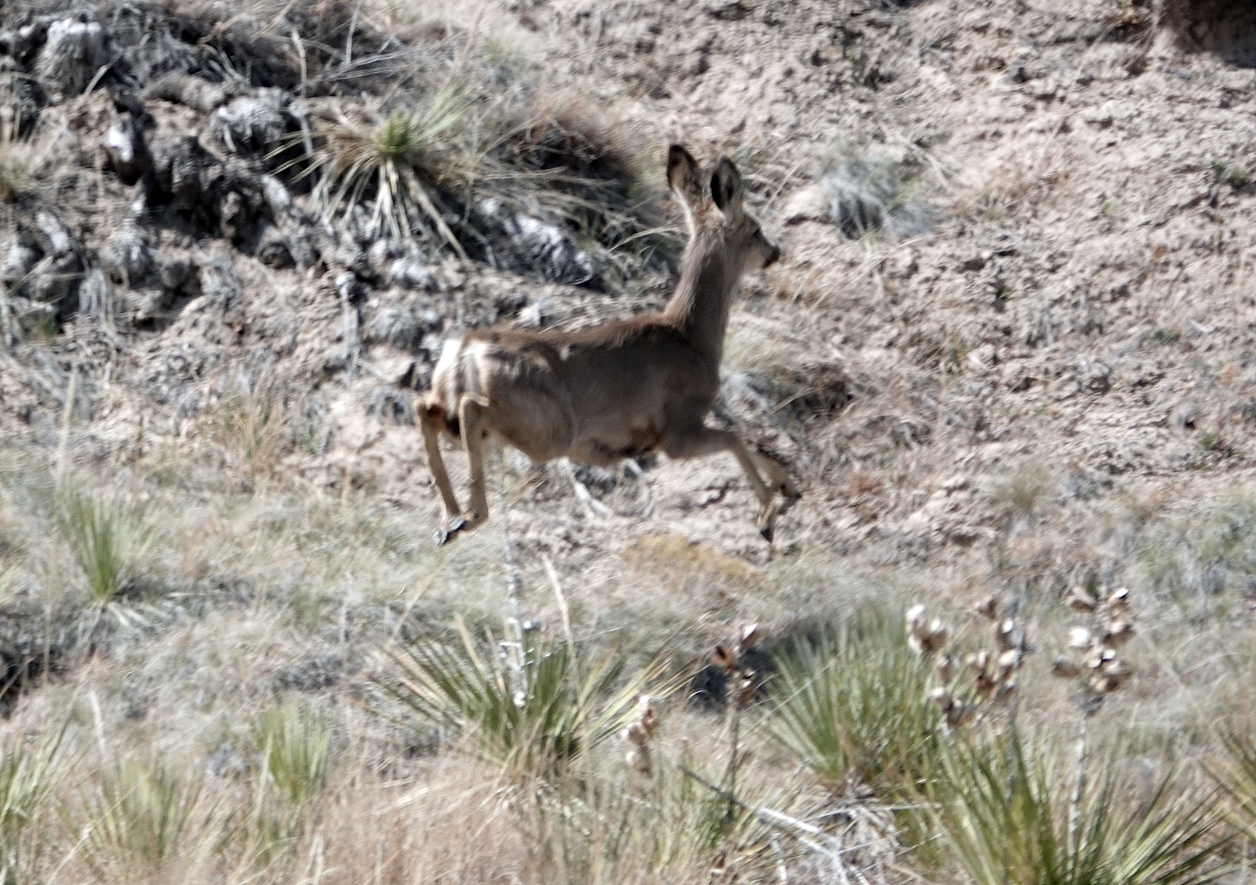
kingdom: Animalia
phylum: Chordata
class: Mammalia
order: Artiodactyla
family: Cervidae
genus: Odocoileus
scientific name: Odocoileus hemionus
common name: Mule deer
